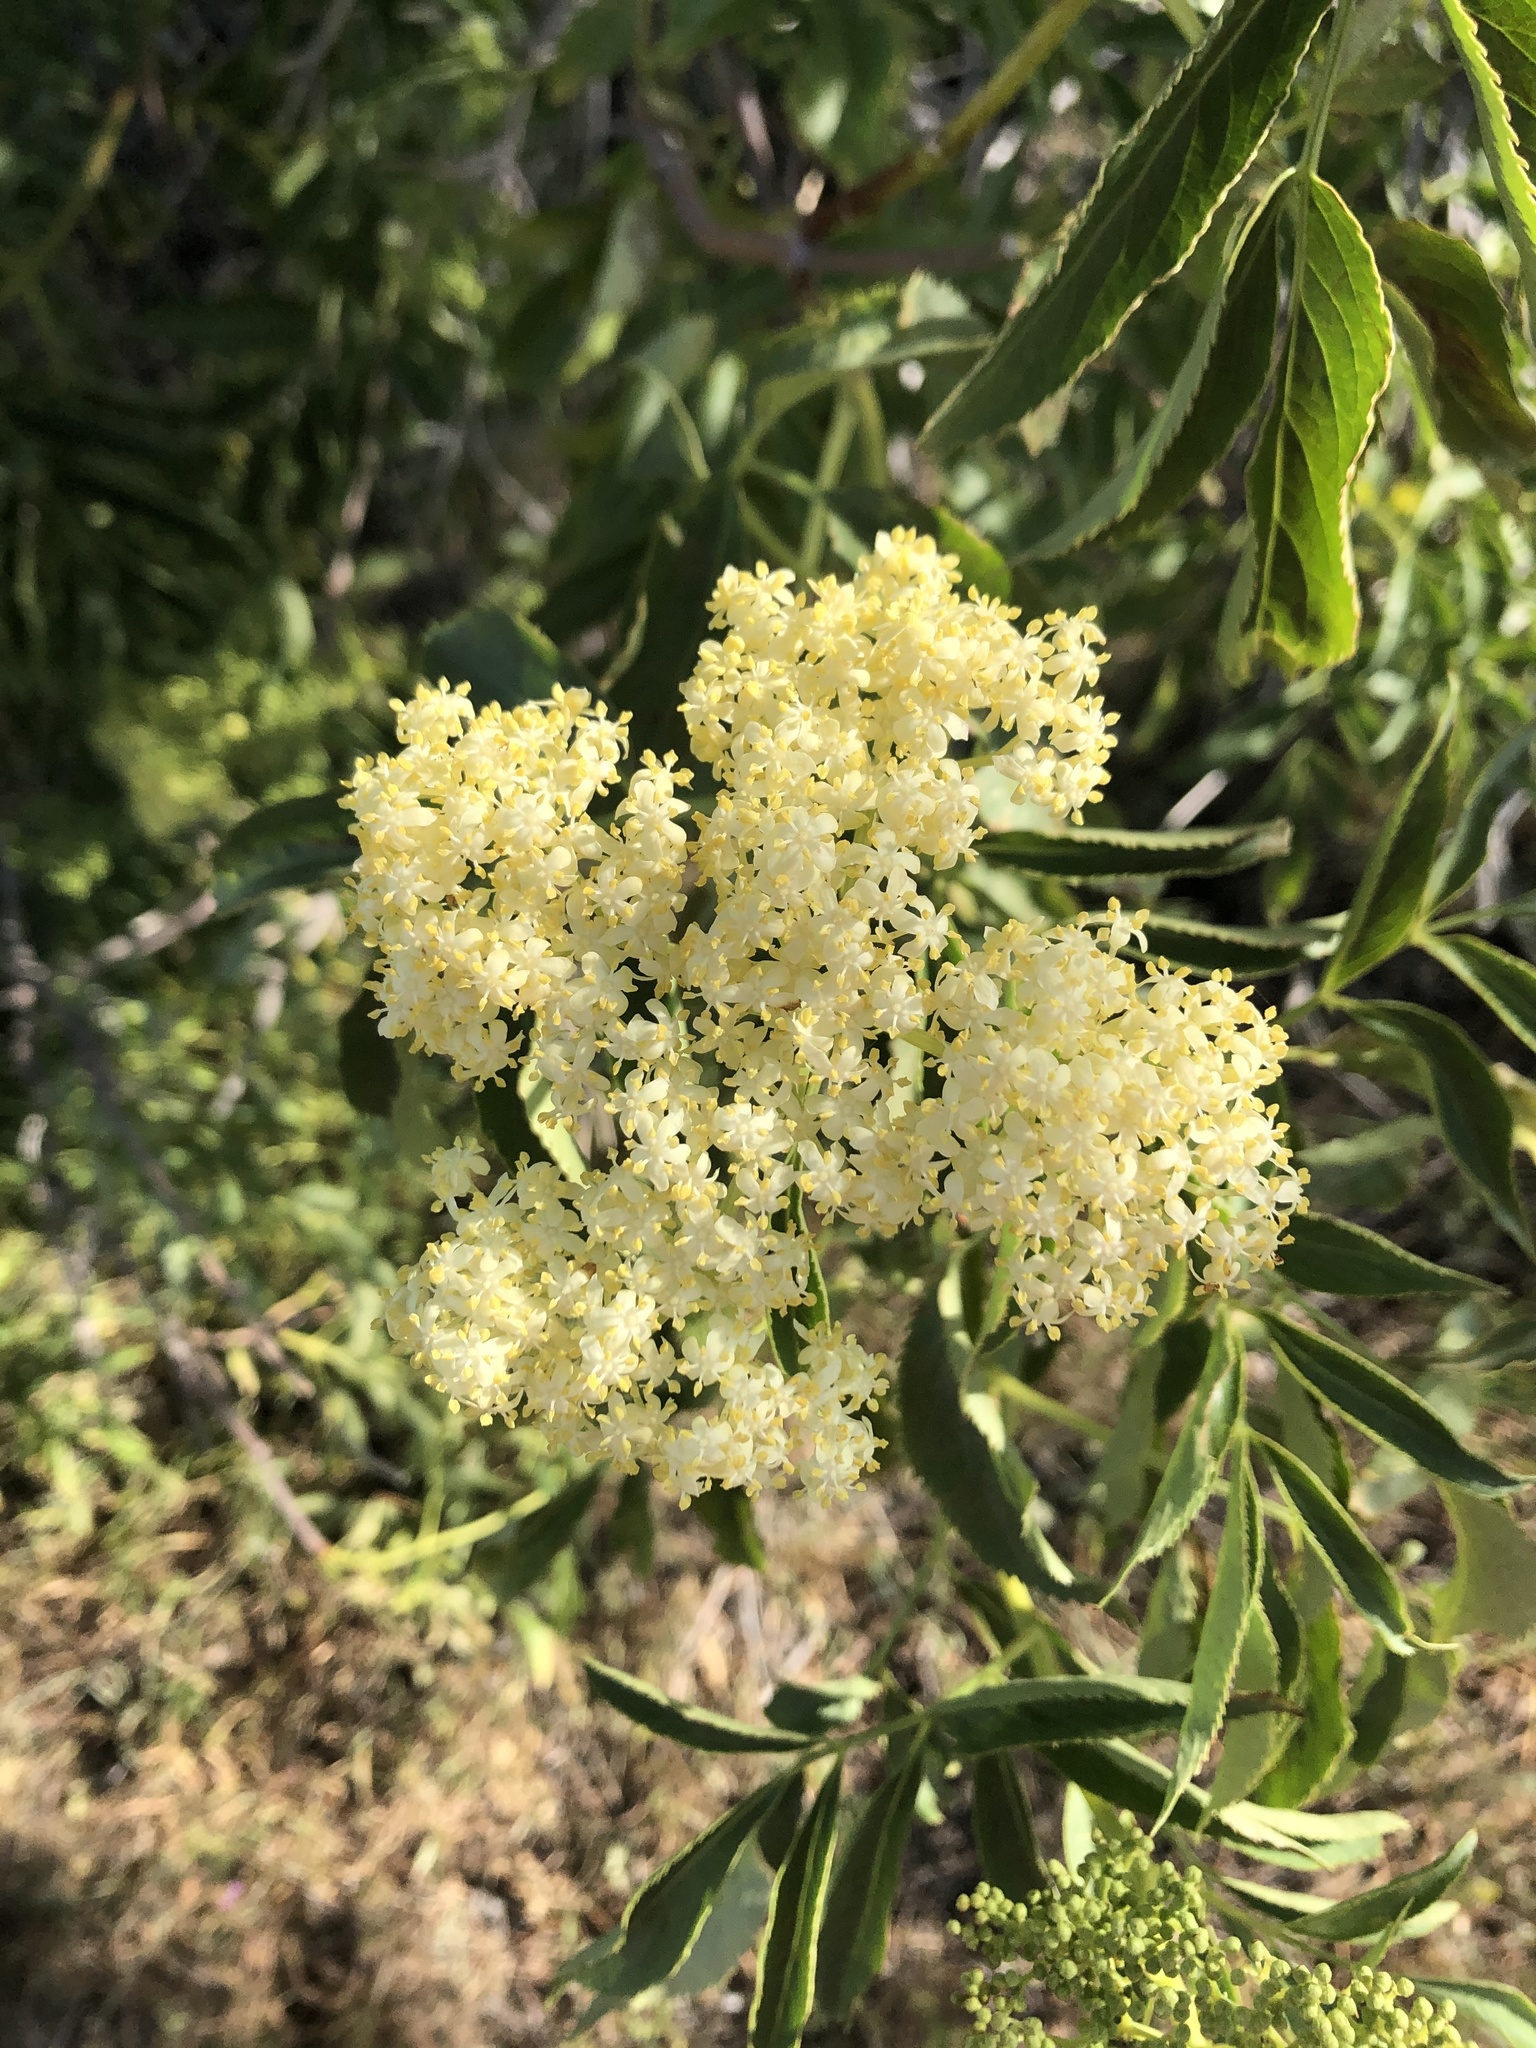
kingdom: Plantae
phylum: Tracheophyta
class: Magnoliopsida
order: Dipsacales
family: Viburnaceae
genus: Sambucus
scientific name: Sambucus cerulea
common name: Blue elder
